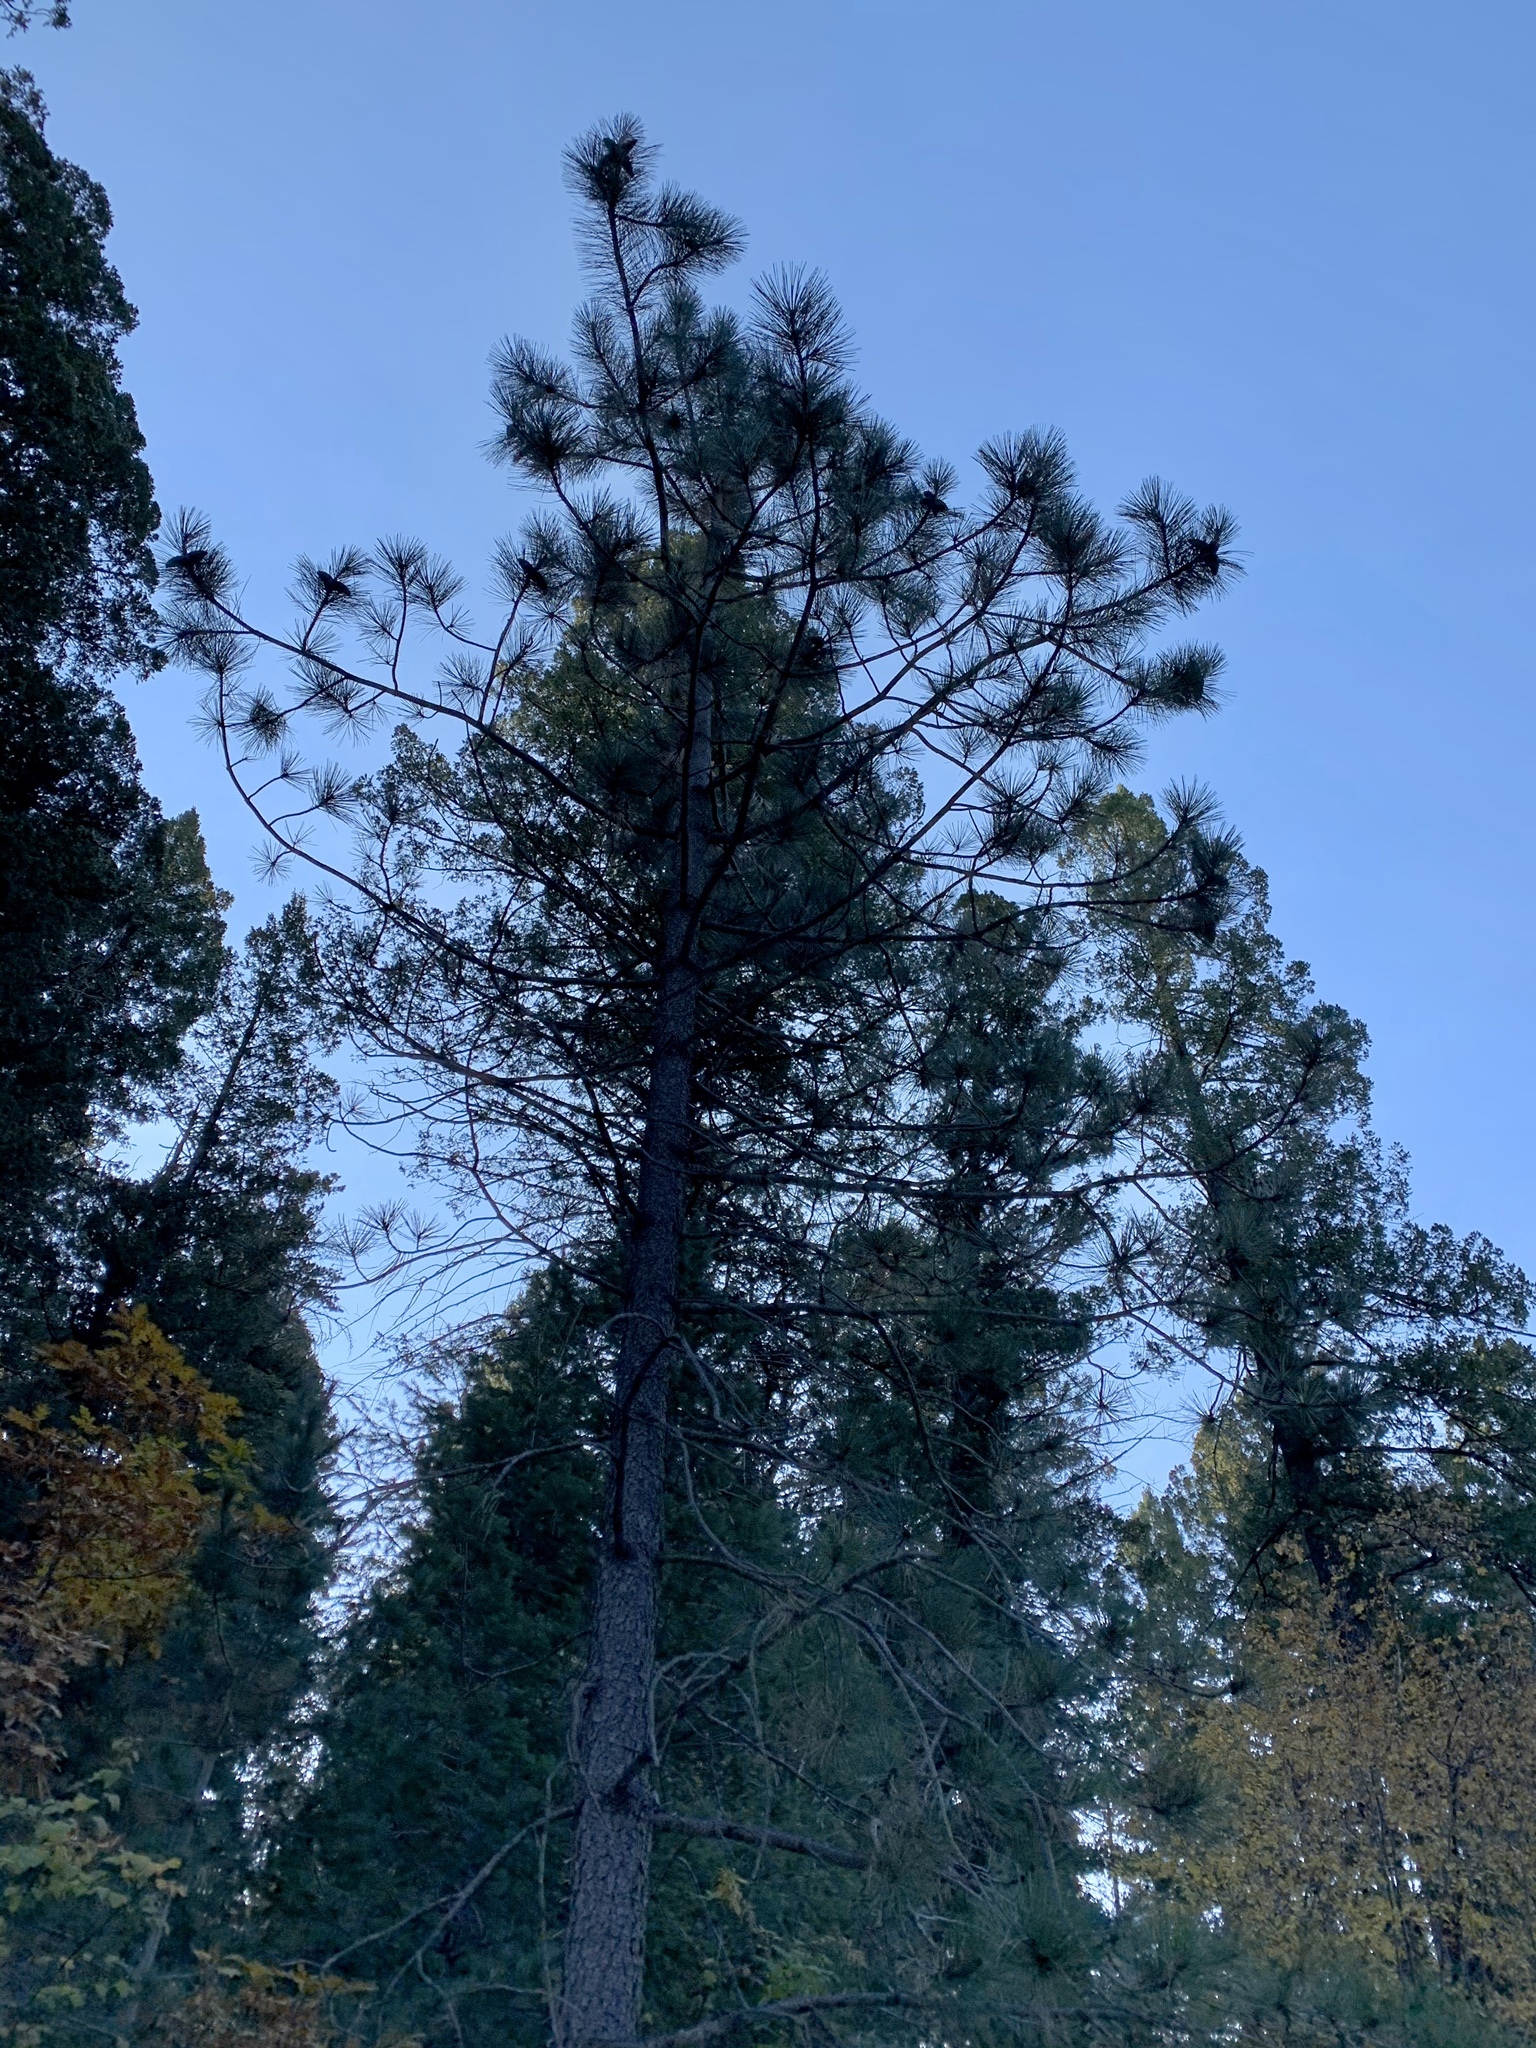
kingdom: Plantae
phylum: Tracheophyta
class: Pinopsida
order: Pinales
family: Pinaceae
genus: Pinus
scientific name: Pinus ponderosa
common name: Western yellow-pine
